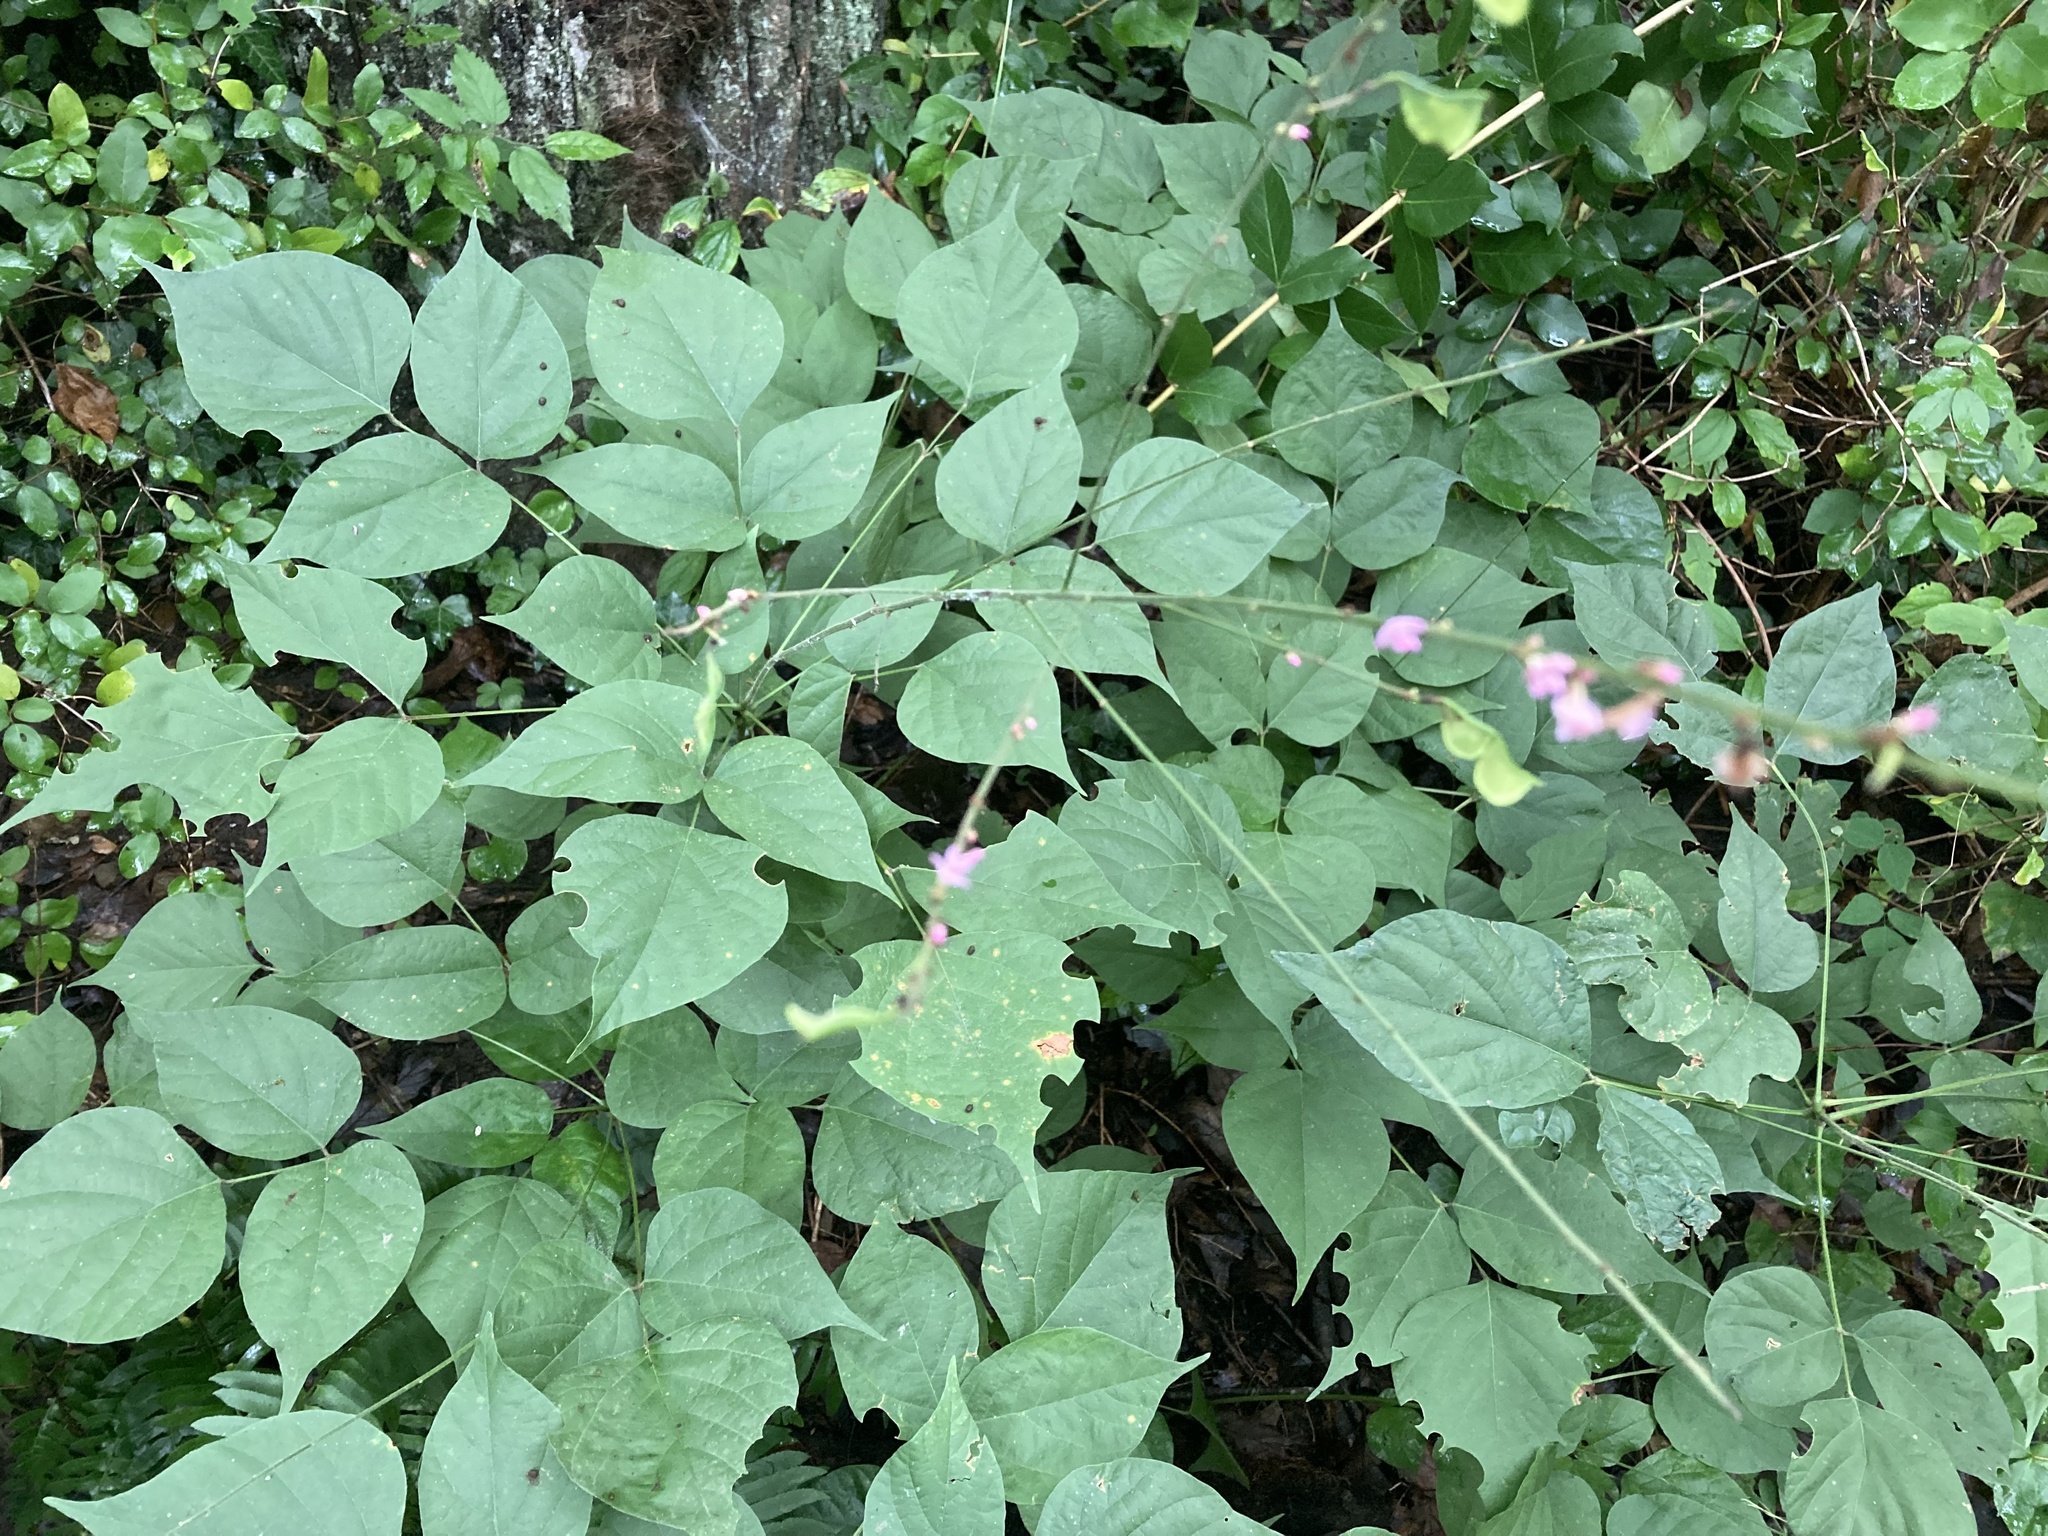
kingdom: Plantae
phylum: Tracheophyta
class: Magnoliopsida
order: Fabales
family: Fabaceae
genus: Hylodesmum
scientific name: Hylodesmum glutinosum
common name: Clustered-leaved tick-trefoil
